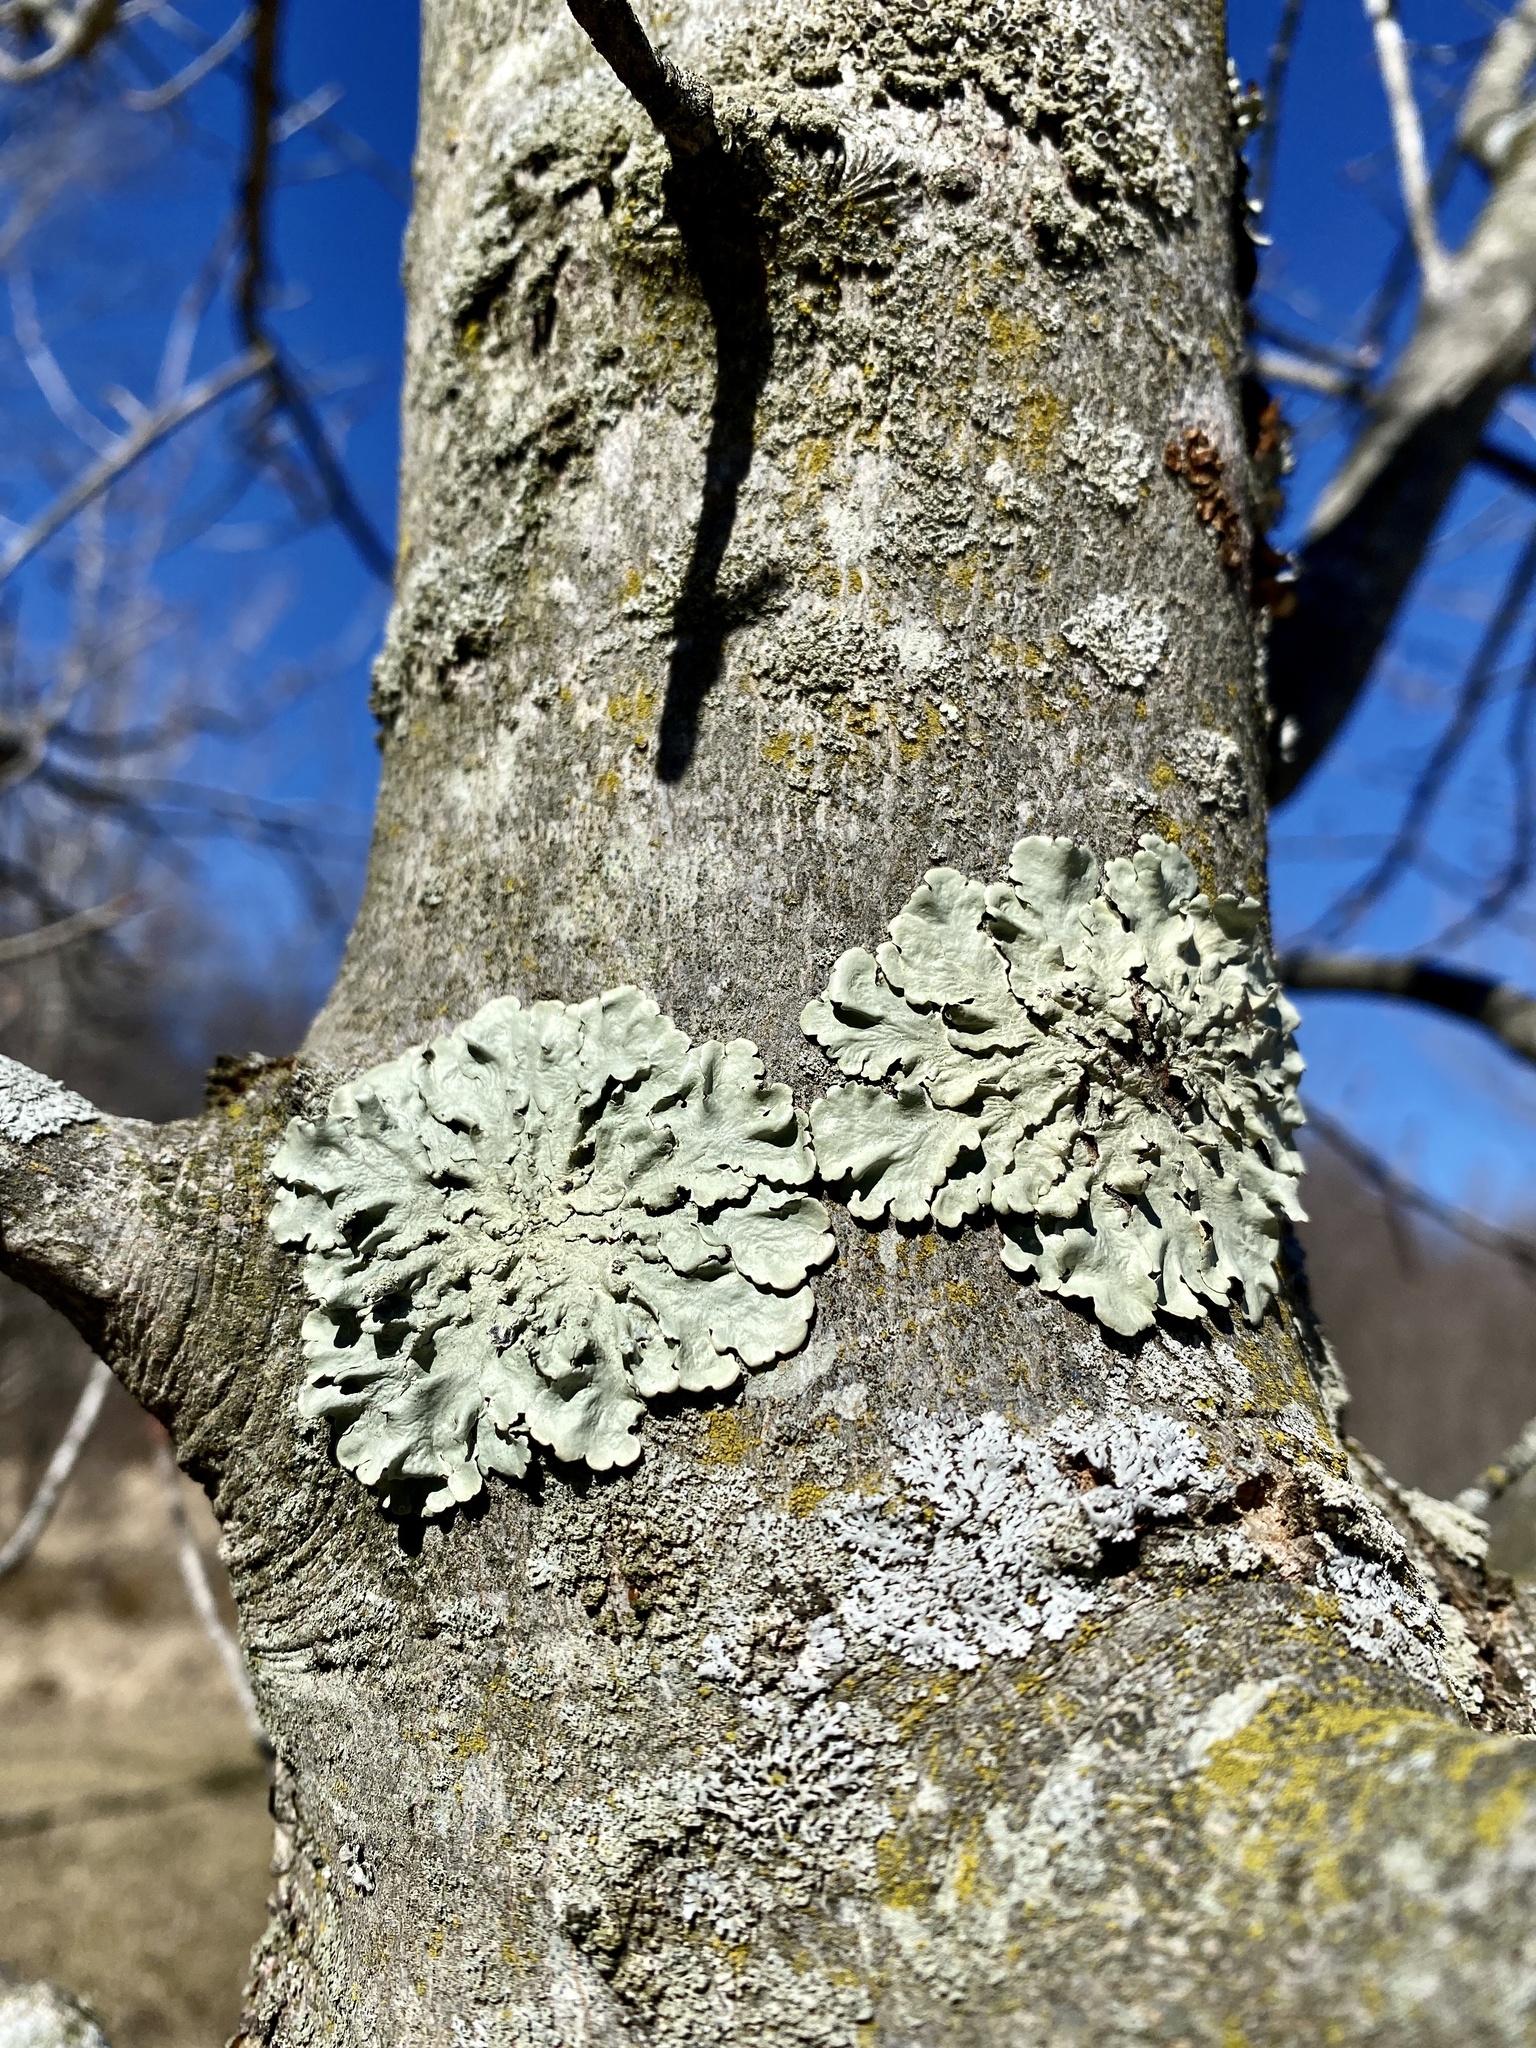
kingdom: Fungi
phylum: Ascomycota
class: Lecanoromycetes
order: Lecanorales
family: Parmeliaceae
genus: Flavoparmelia
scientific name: Flavoparmelia caperata
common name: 40-mile per hour lichen
